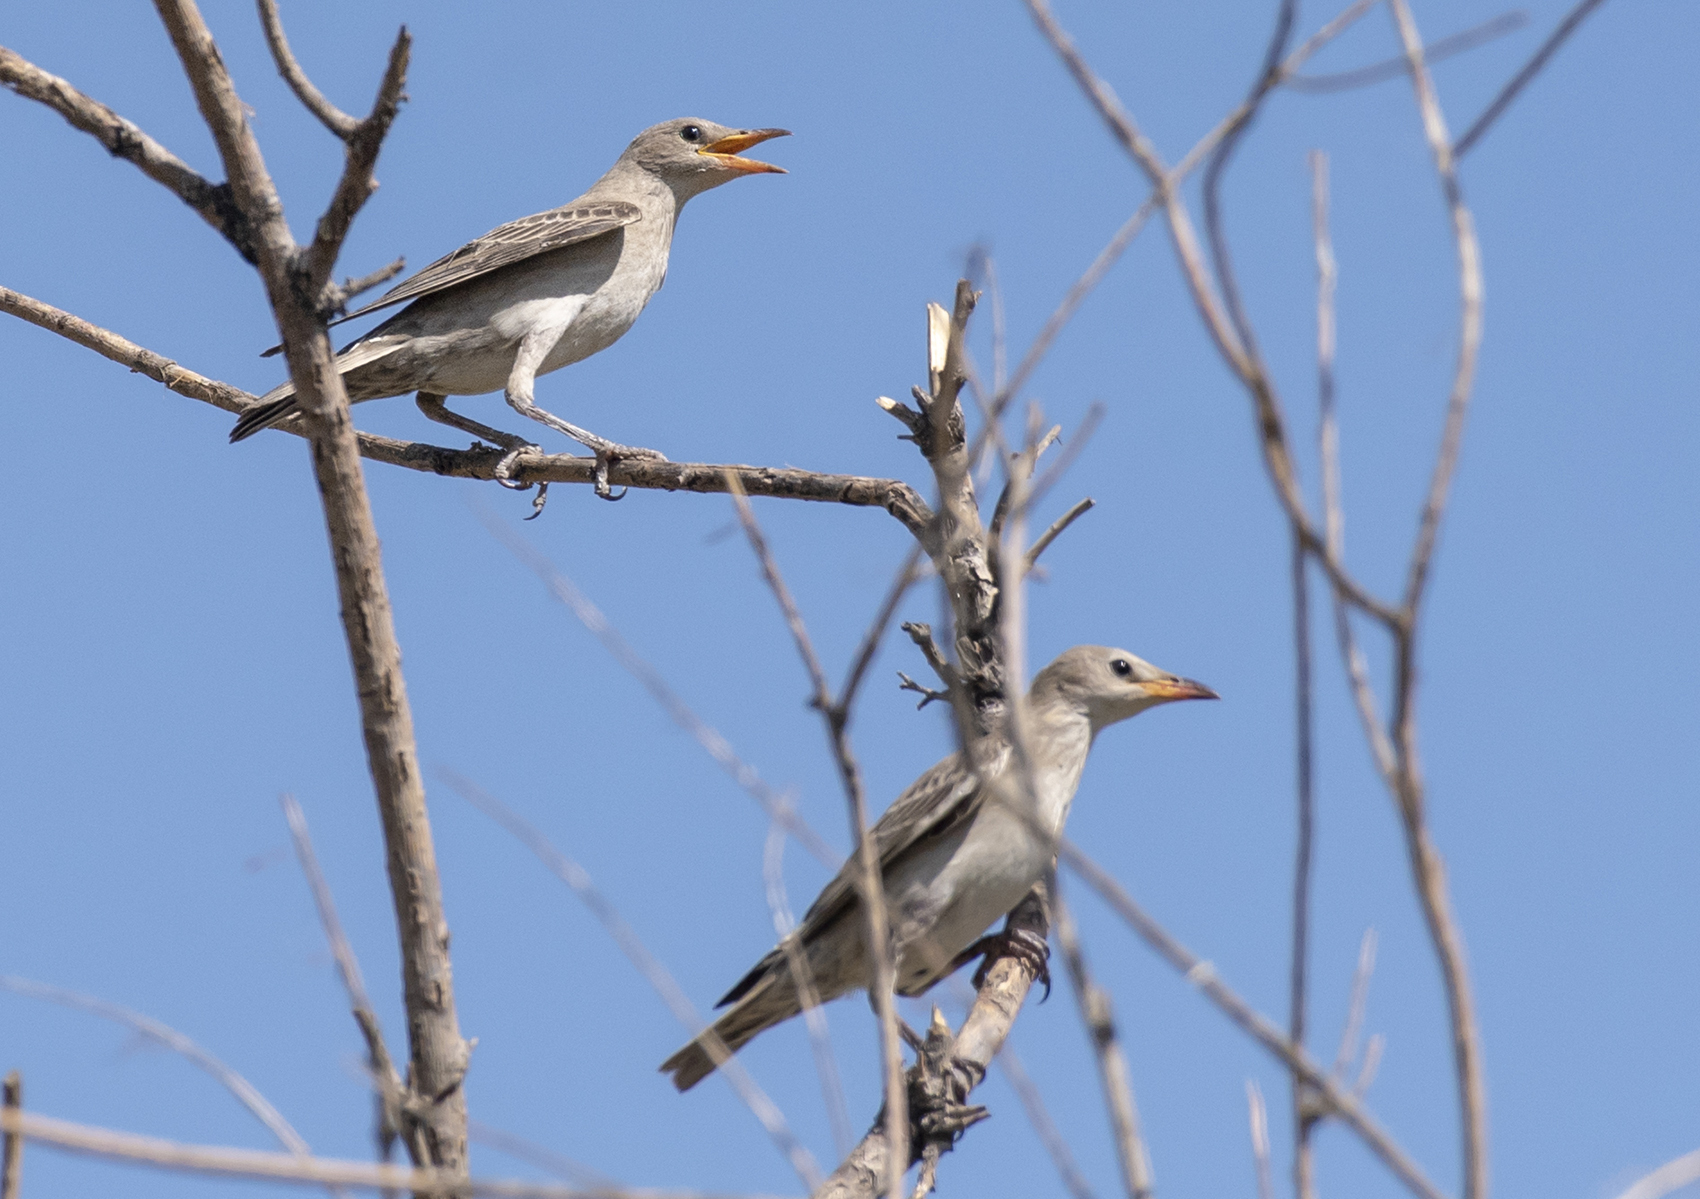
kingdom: Animalia
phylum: Chordata
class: Aves
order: Passeriformes
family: Sturnidae
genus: Pastor
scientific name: Pastor roseus
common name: Rosy starling
